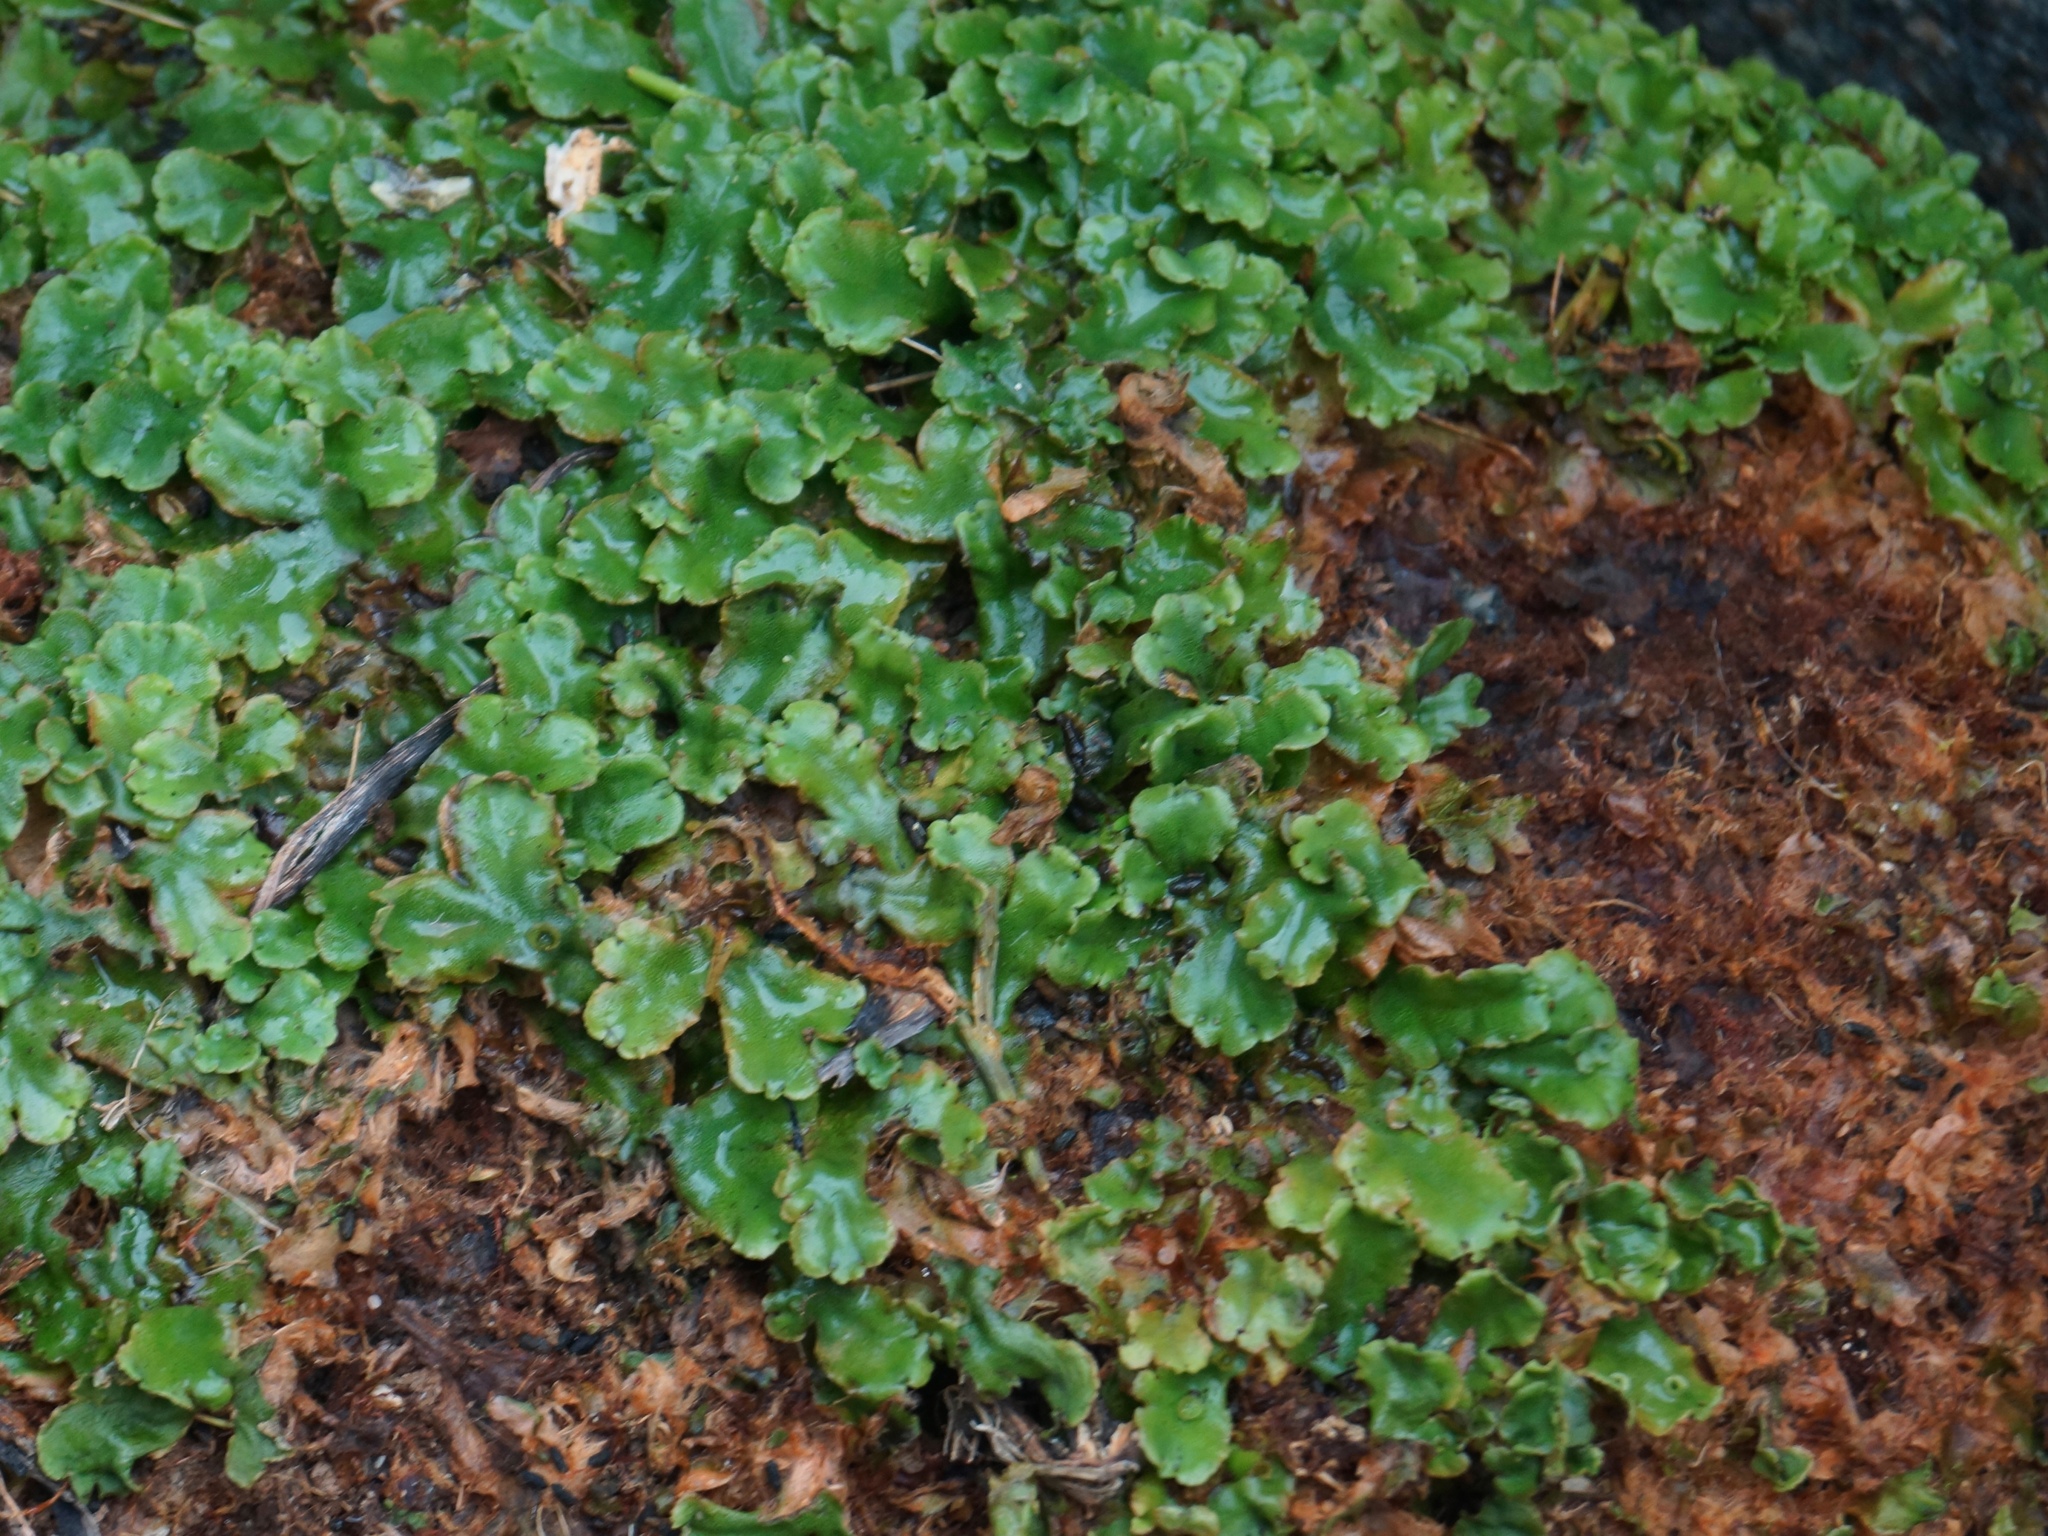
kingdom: Plantae
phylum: Marchantiophyta
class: Marchantiopsida
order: Marchantiales
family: Marchantiaceae
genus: Marchantia
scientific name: Marchantia polymorpha
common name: Common liverwort
